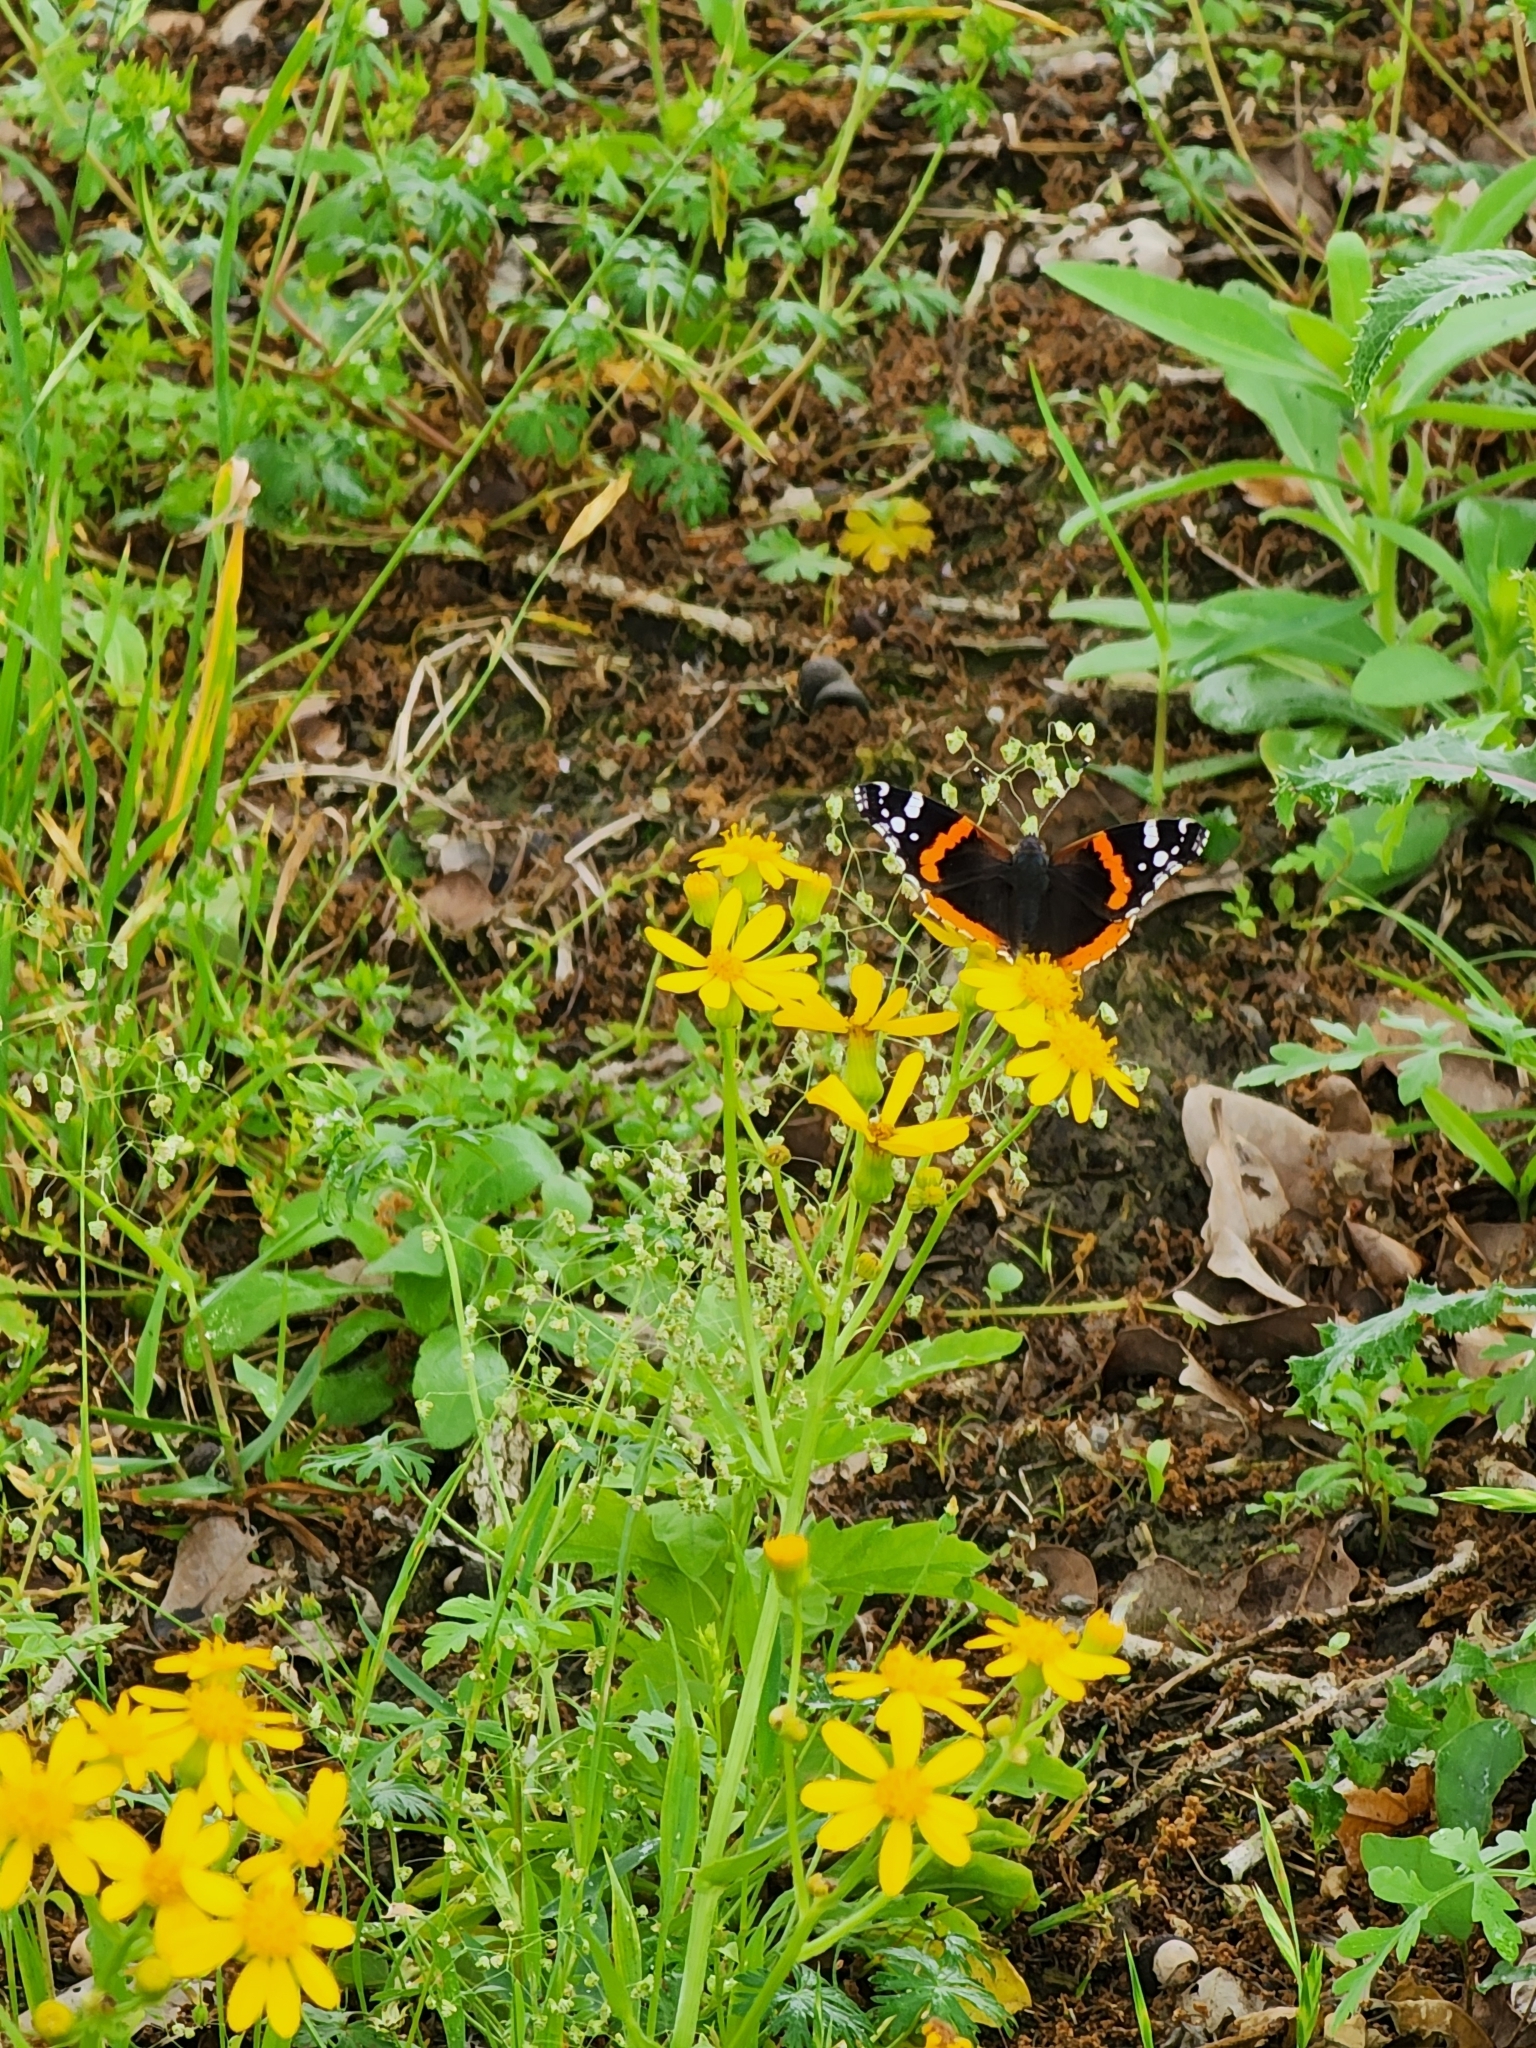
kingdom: Animalia
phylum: Arthropoda
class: Insecta
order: Lepidoptera
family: Nymphalidae
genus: Vanessa
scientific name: Vanessa atalanta
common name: Red admiral
